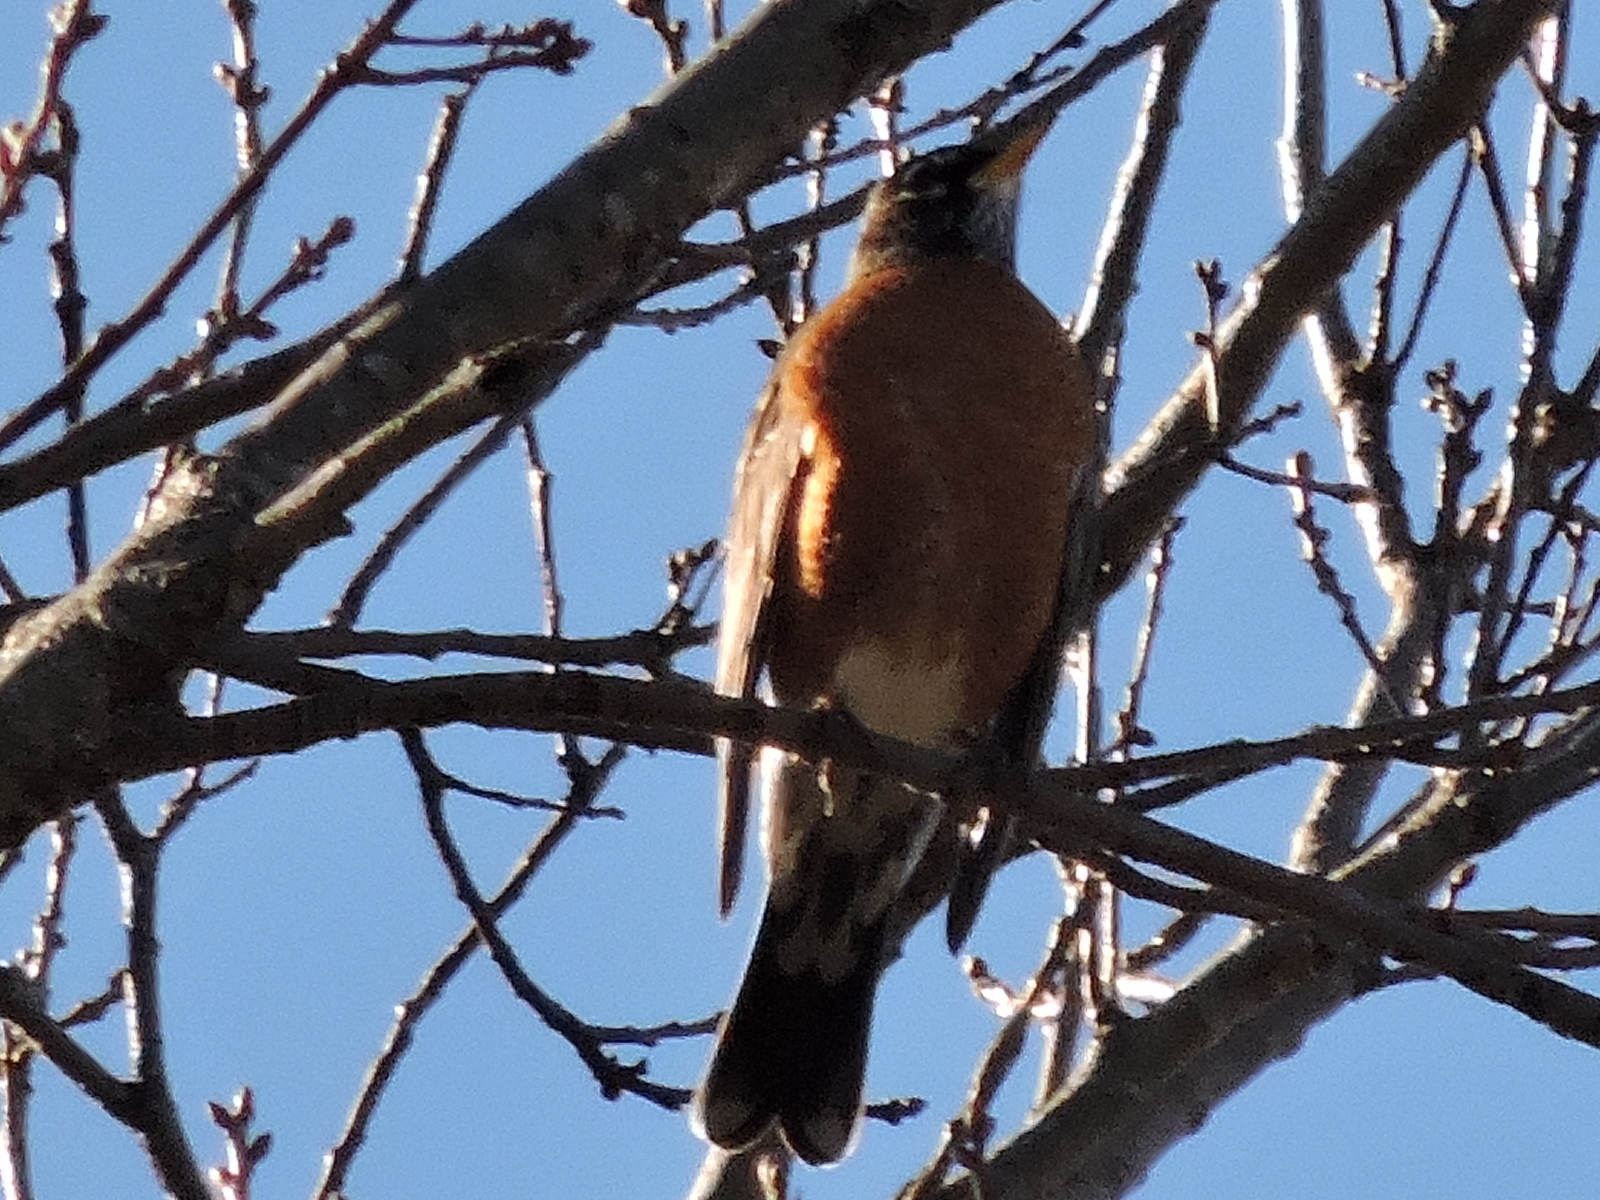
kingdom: Animalia
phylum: Chordata
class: Aves
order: Passeriformes
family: Turdidae
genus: Turdus
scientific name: Turdus migratorius
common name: American robin
